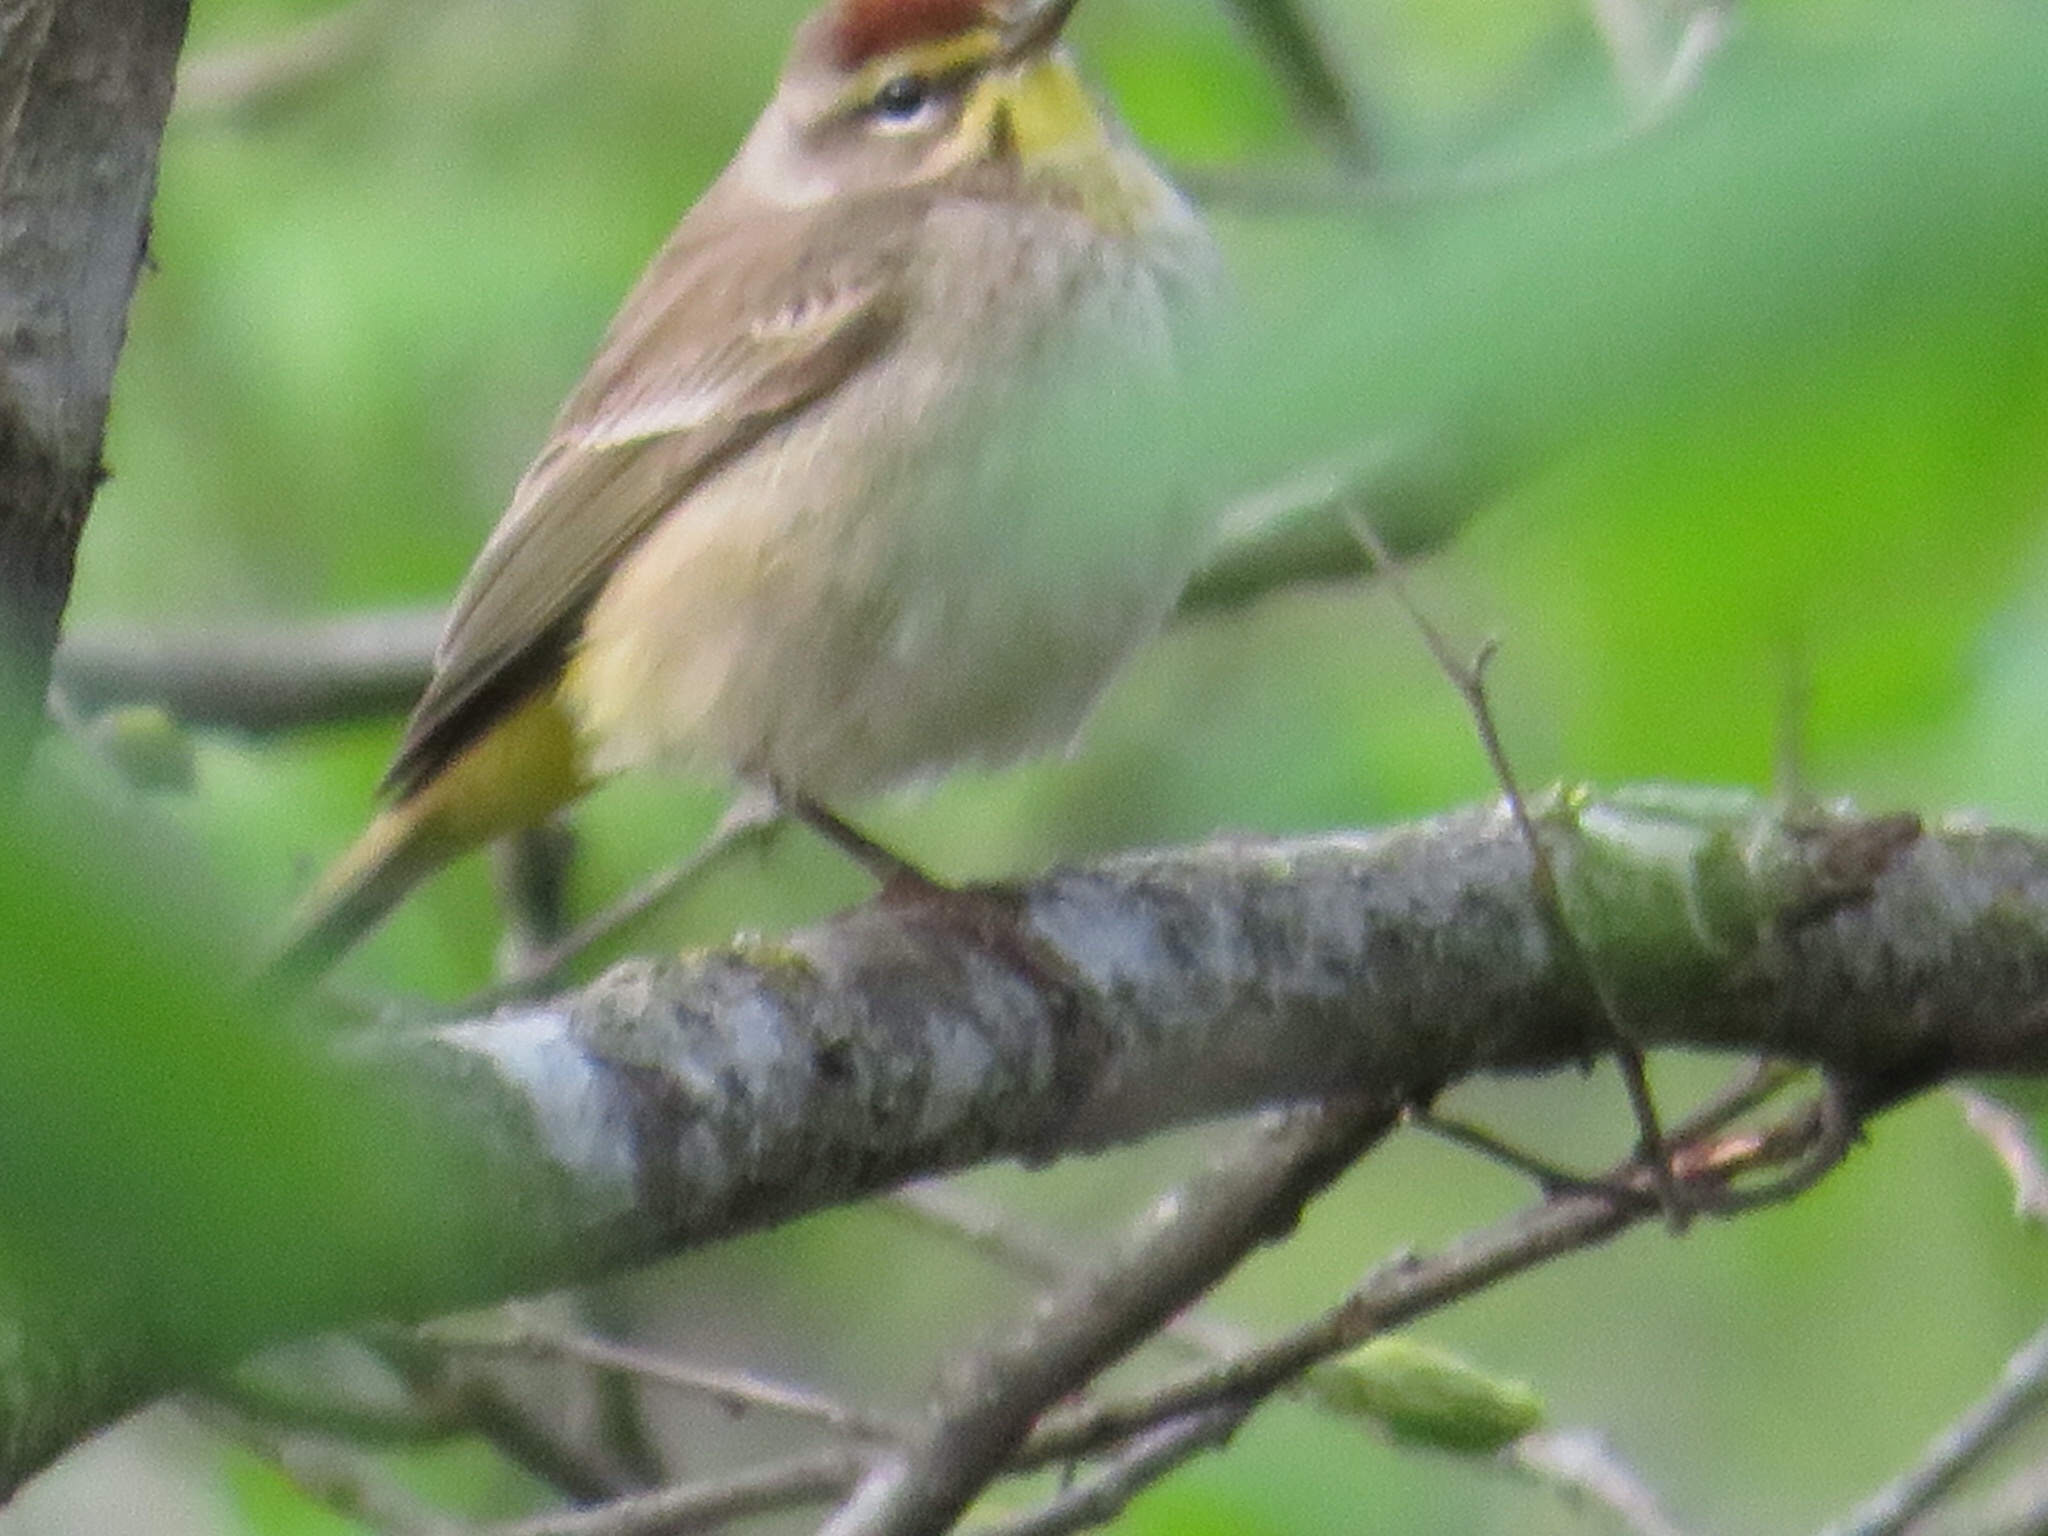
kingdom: Animalia
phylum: Chordata
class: Aves
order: Passeriformes
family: Parulidae
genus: Setophaga
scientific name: Setophaga palmarum
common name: Palm warbler
